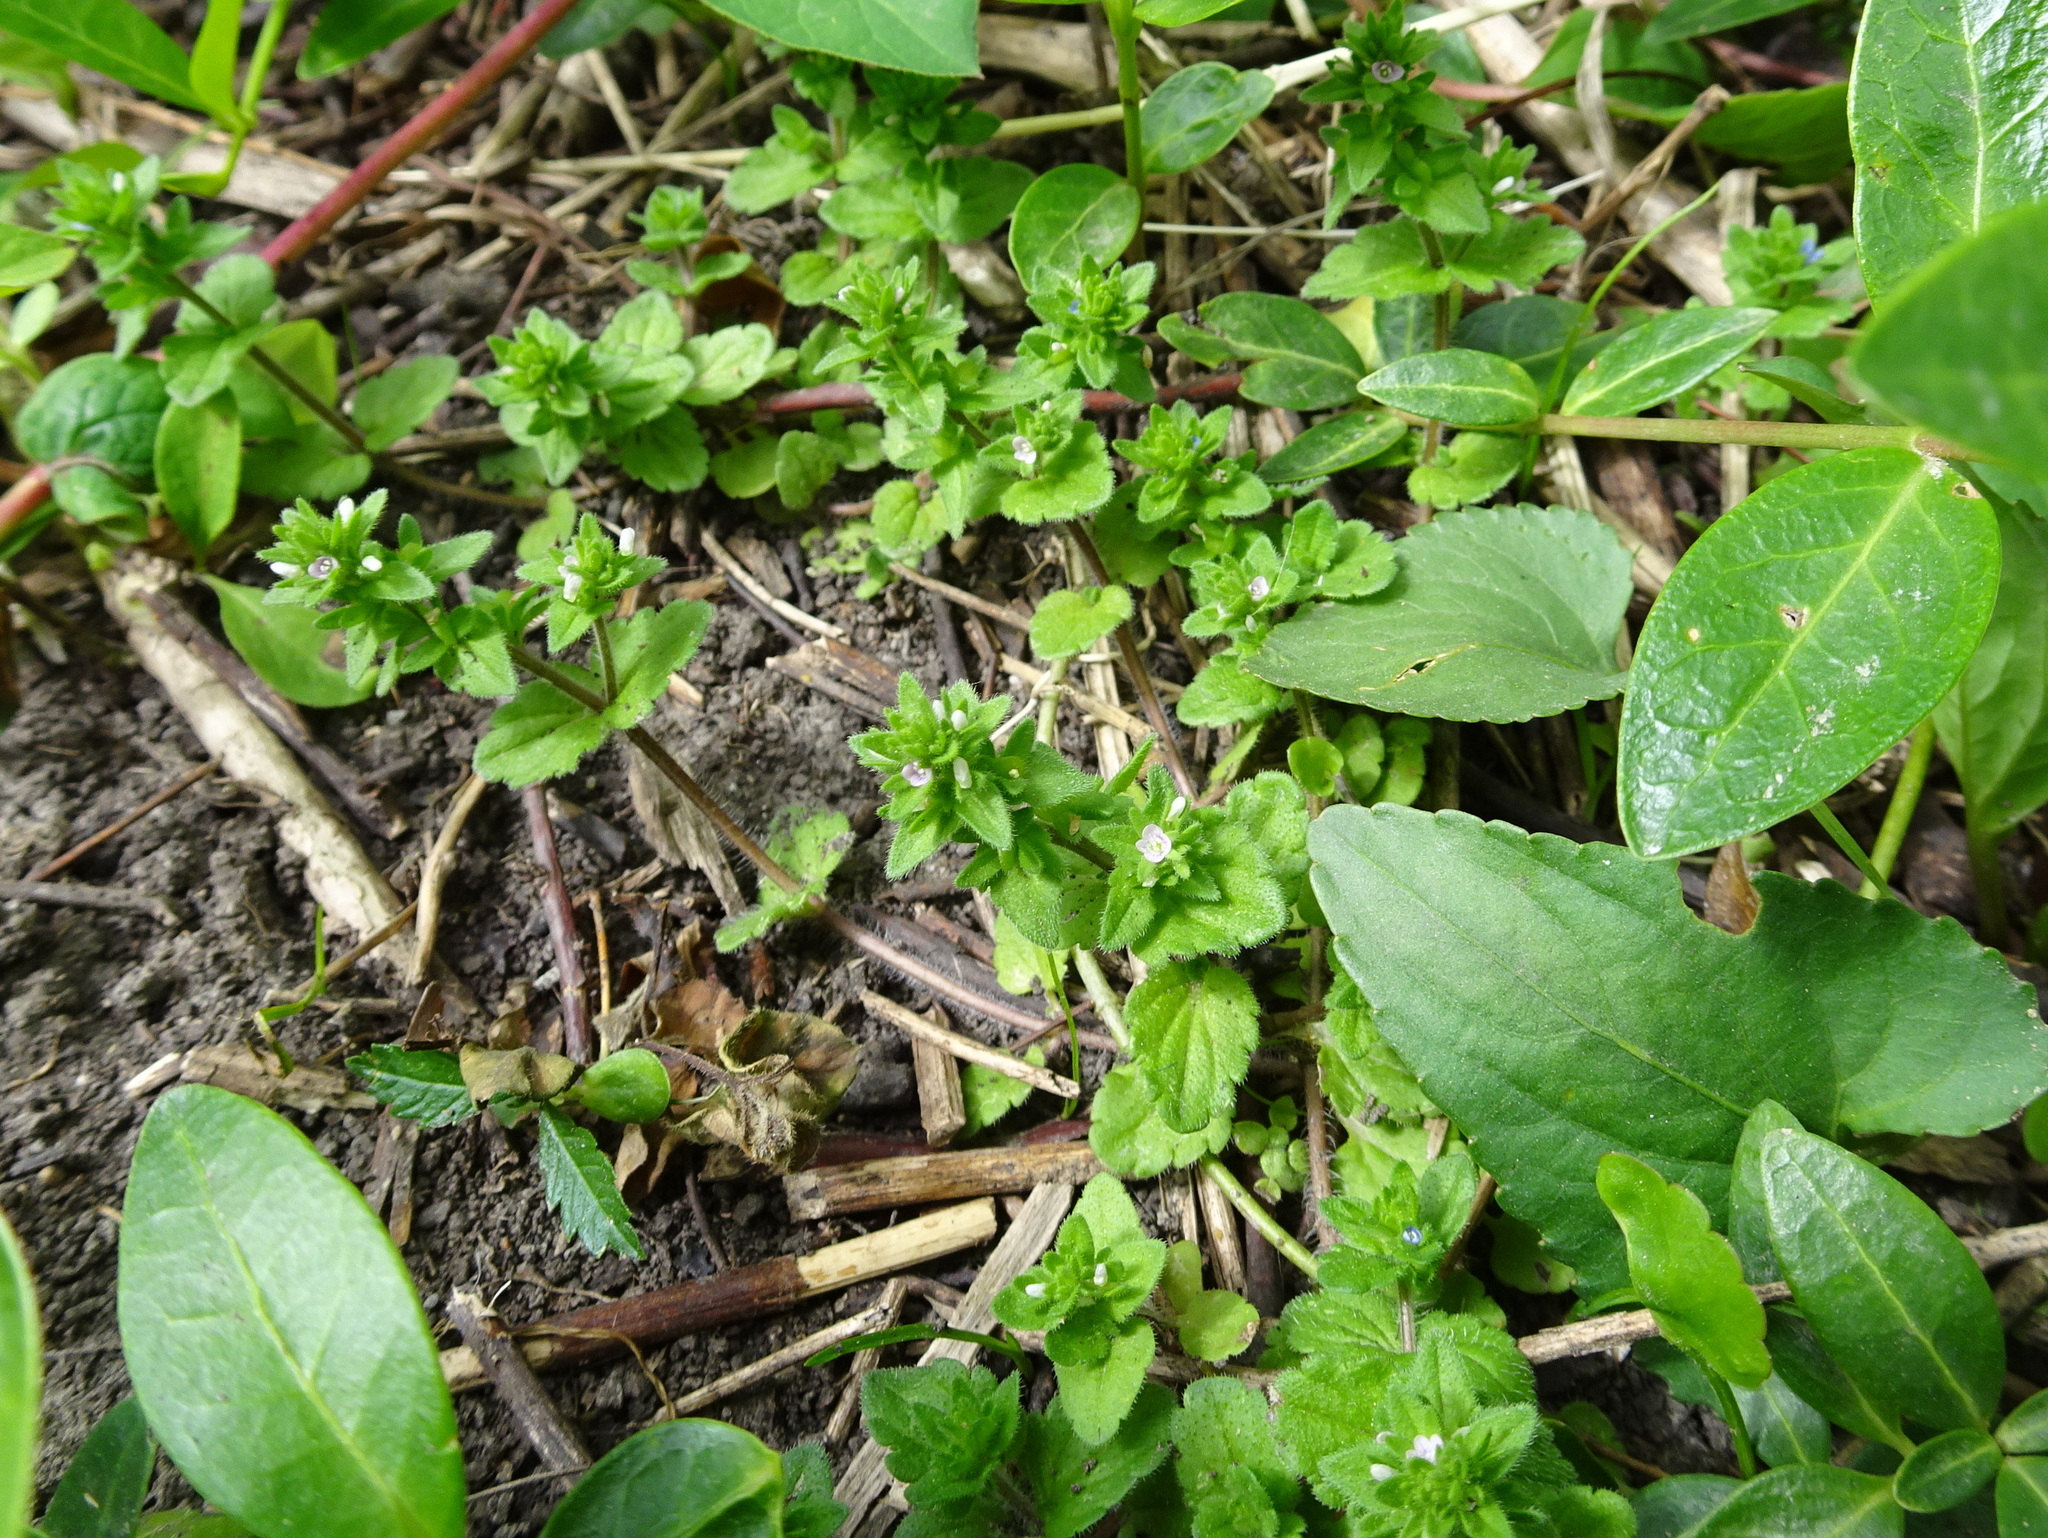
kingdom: Plantae
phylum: Tracheophyta
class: Magnoliopsida
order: Lamiales
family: Plantaginaceae
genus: Veronica
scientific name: Veronica arvensis
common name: Corn speedwell
